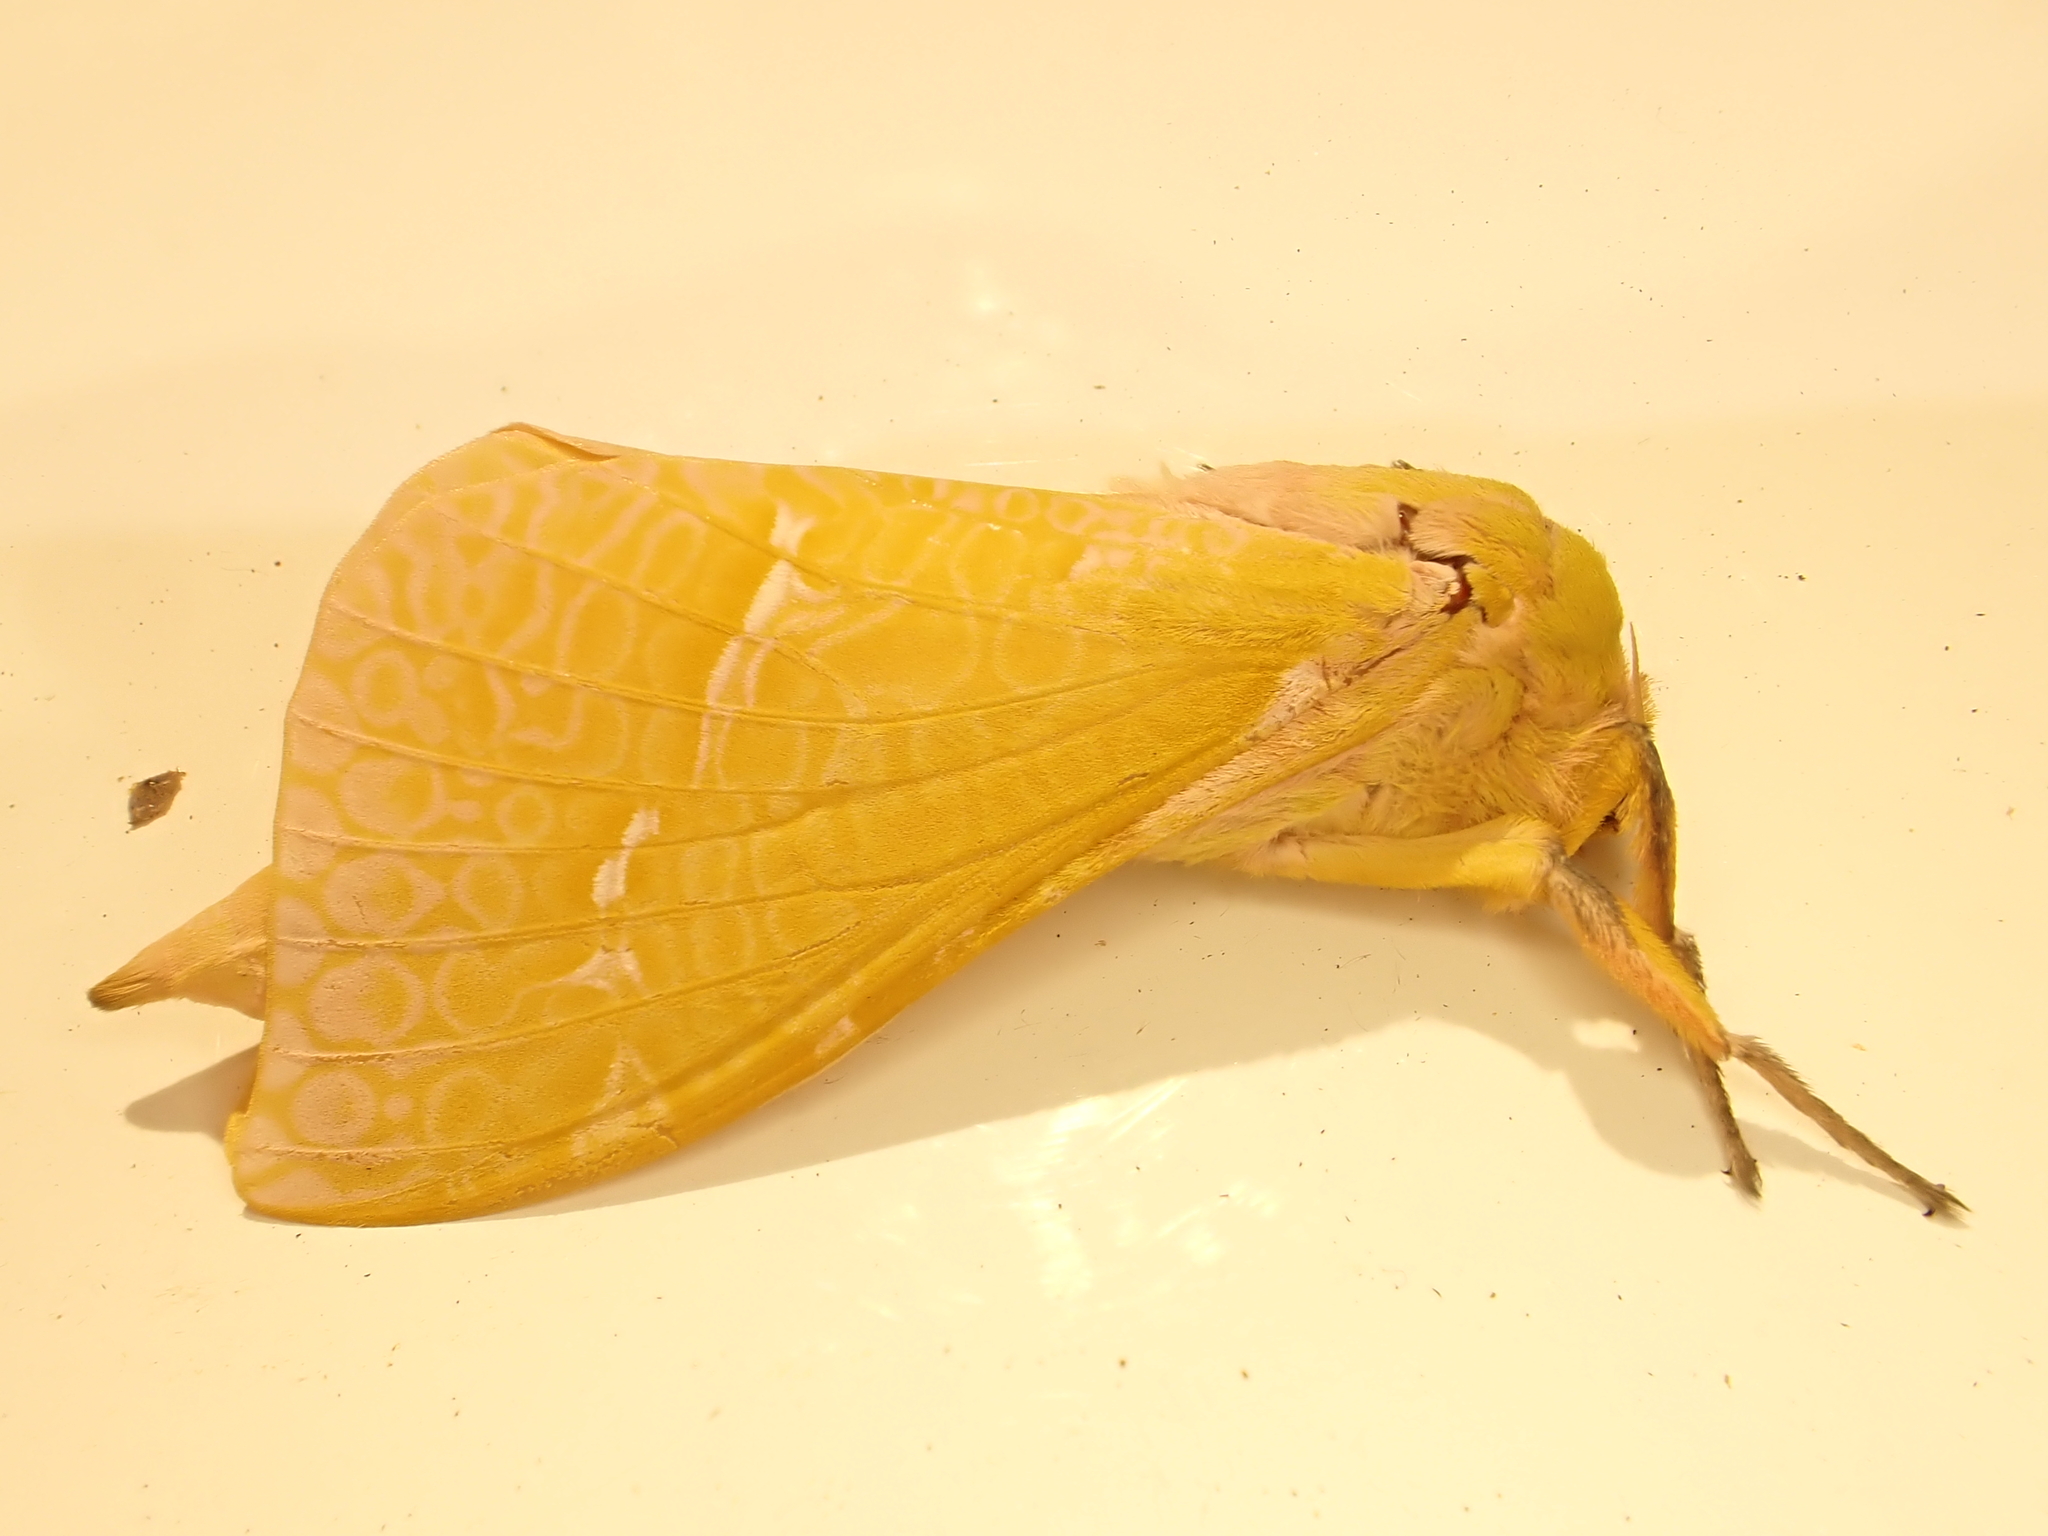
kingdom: Animalia
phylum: Arthropoda
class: Insecta
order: Lepidoptera
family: Hepialidae
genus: Aenetus
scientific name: Aenetus virescens
